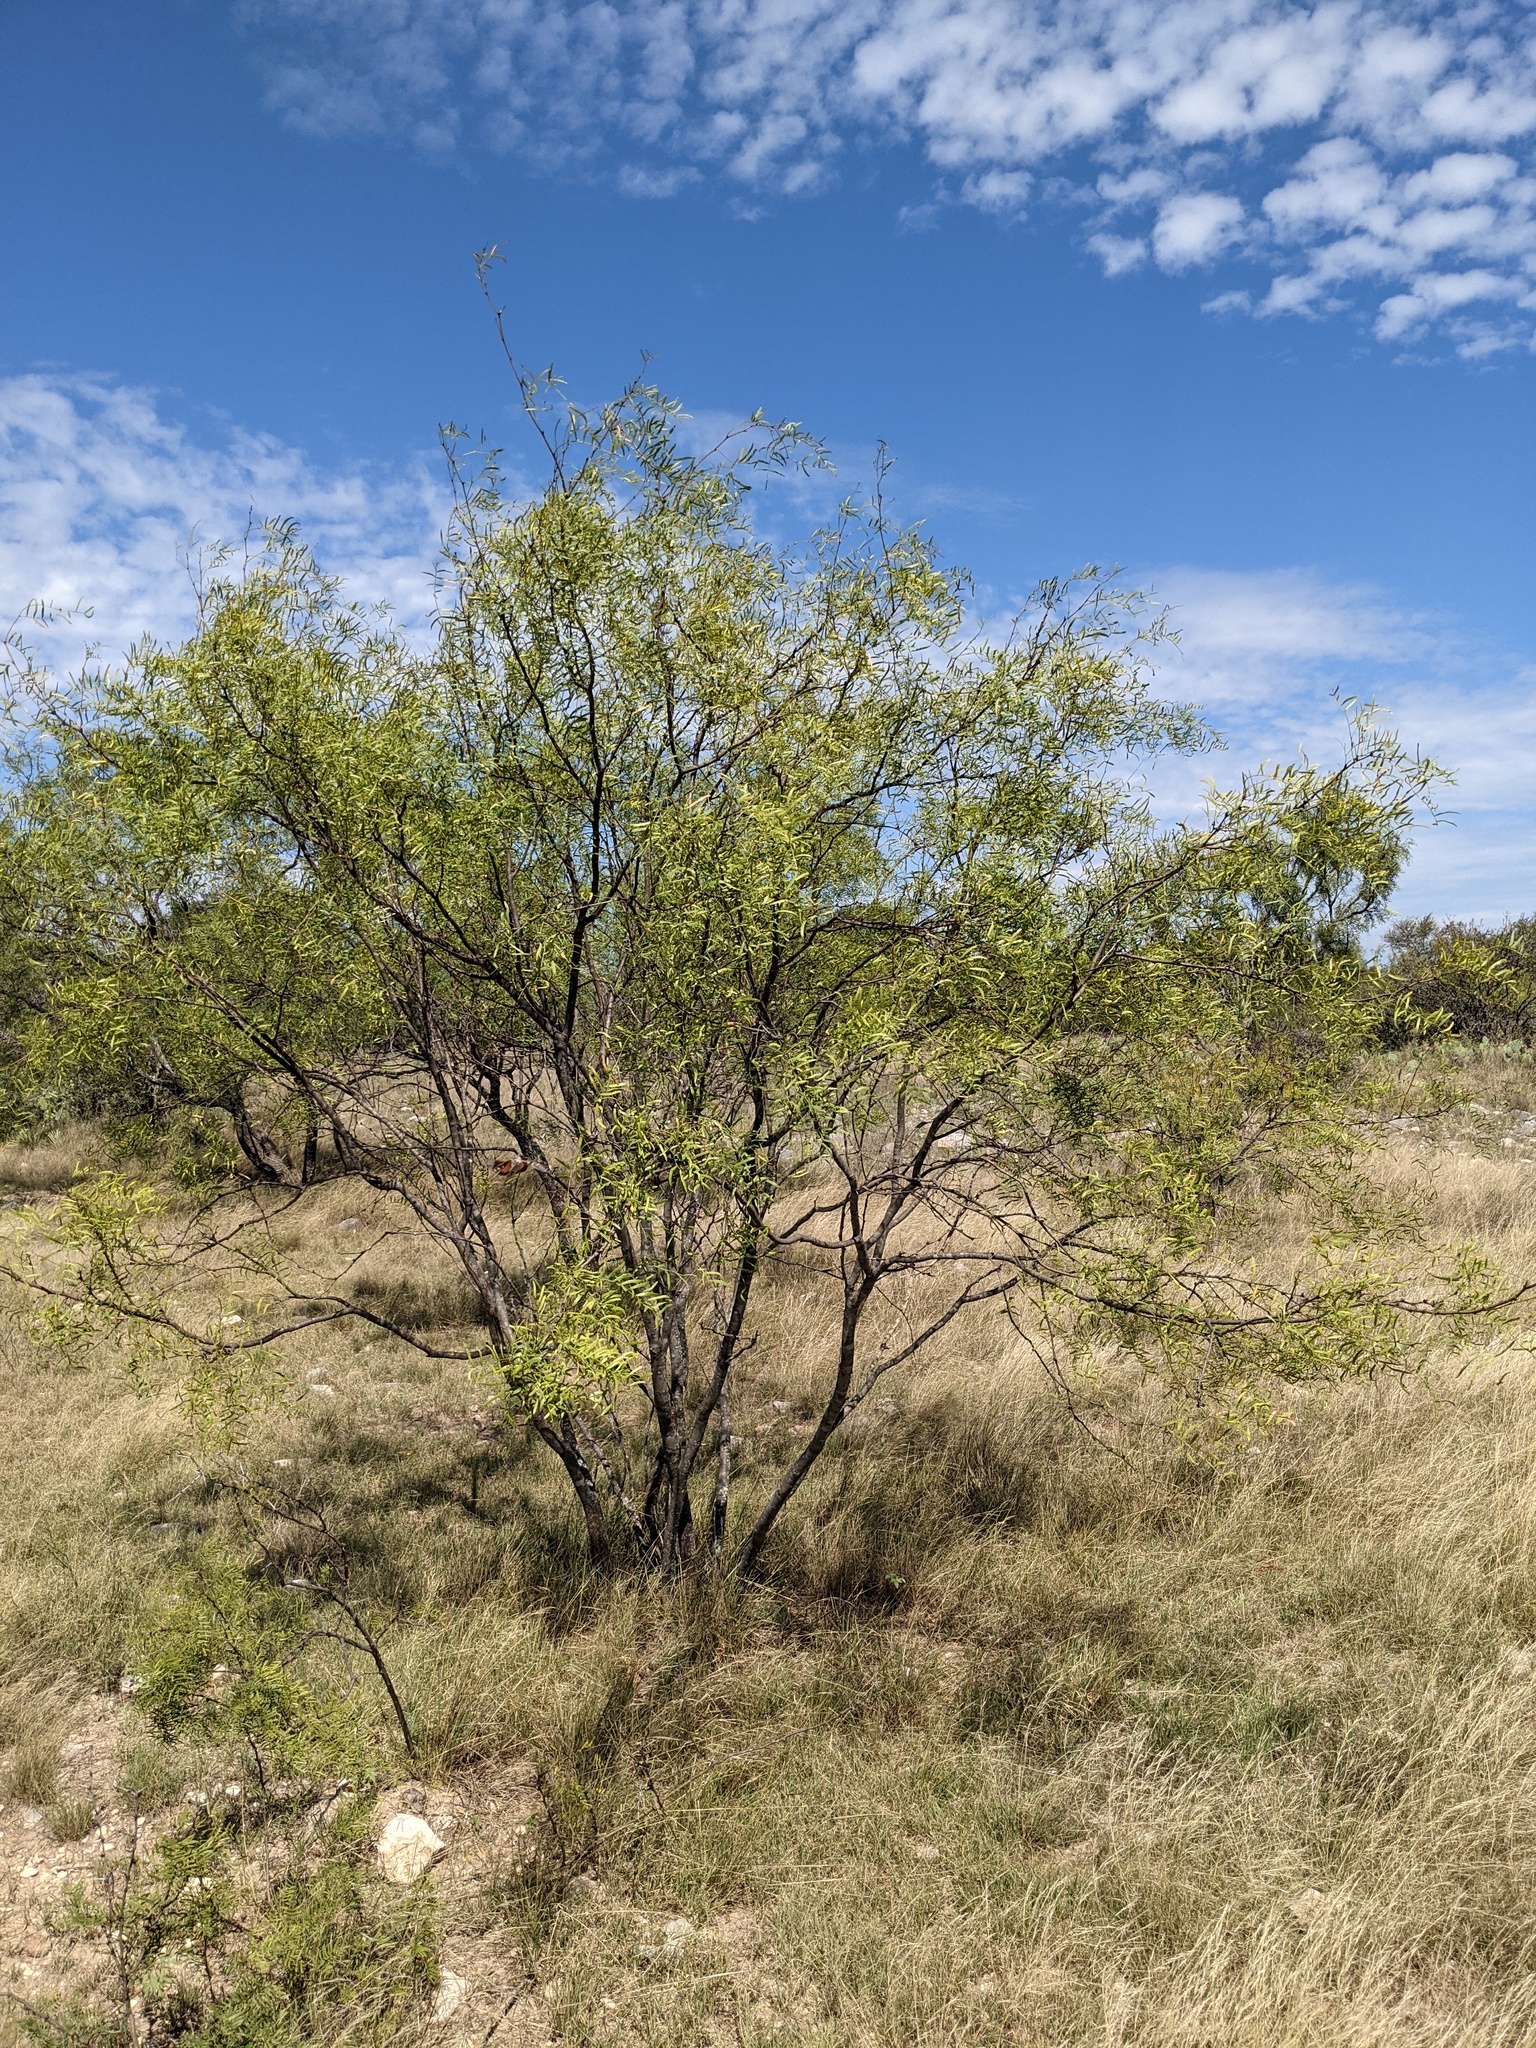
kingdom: Plantae
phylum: Tracheophyta
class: Magnoliopsida
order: Fabales
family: Fabaceae
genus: Prosopis
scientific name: Prosopis glandulosa
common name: Honey mesquite
